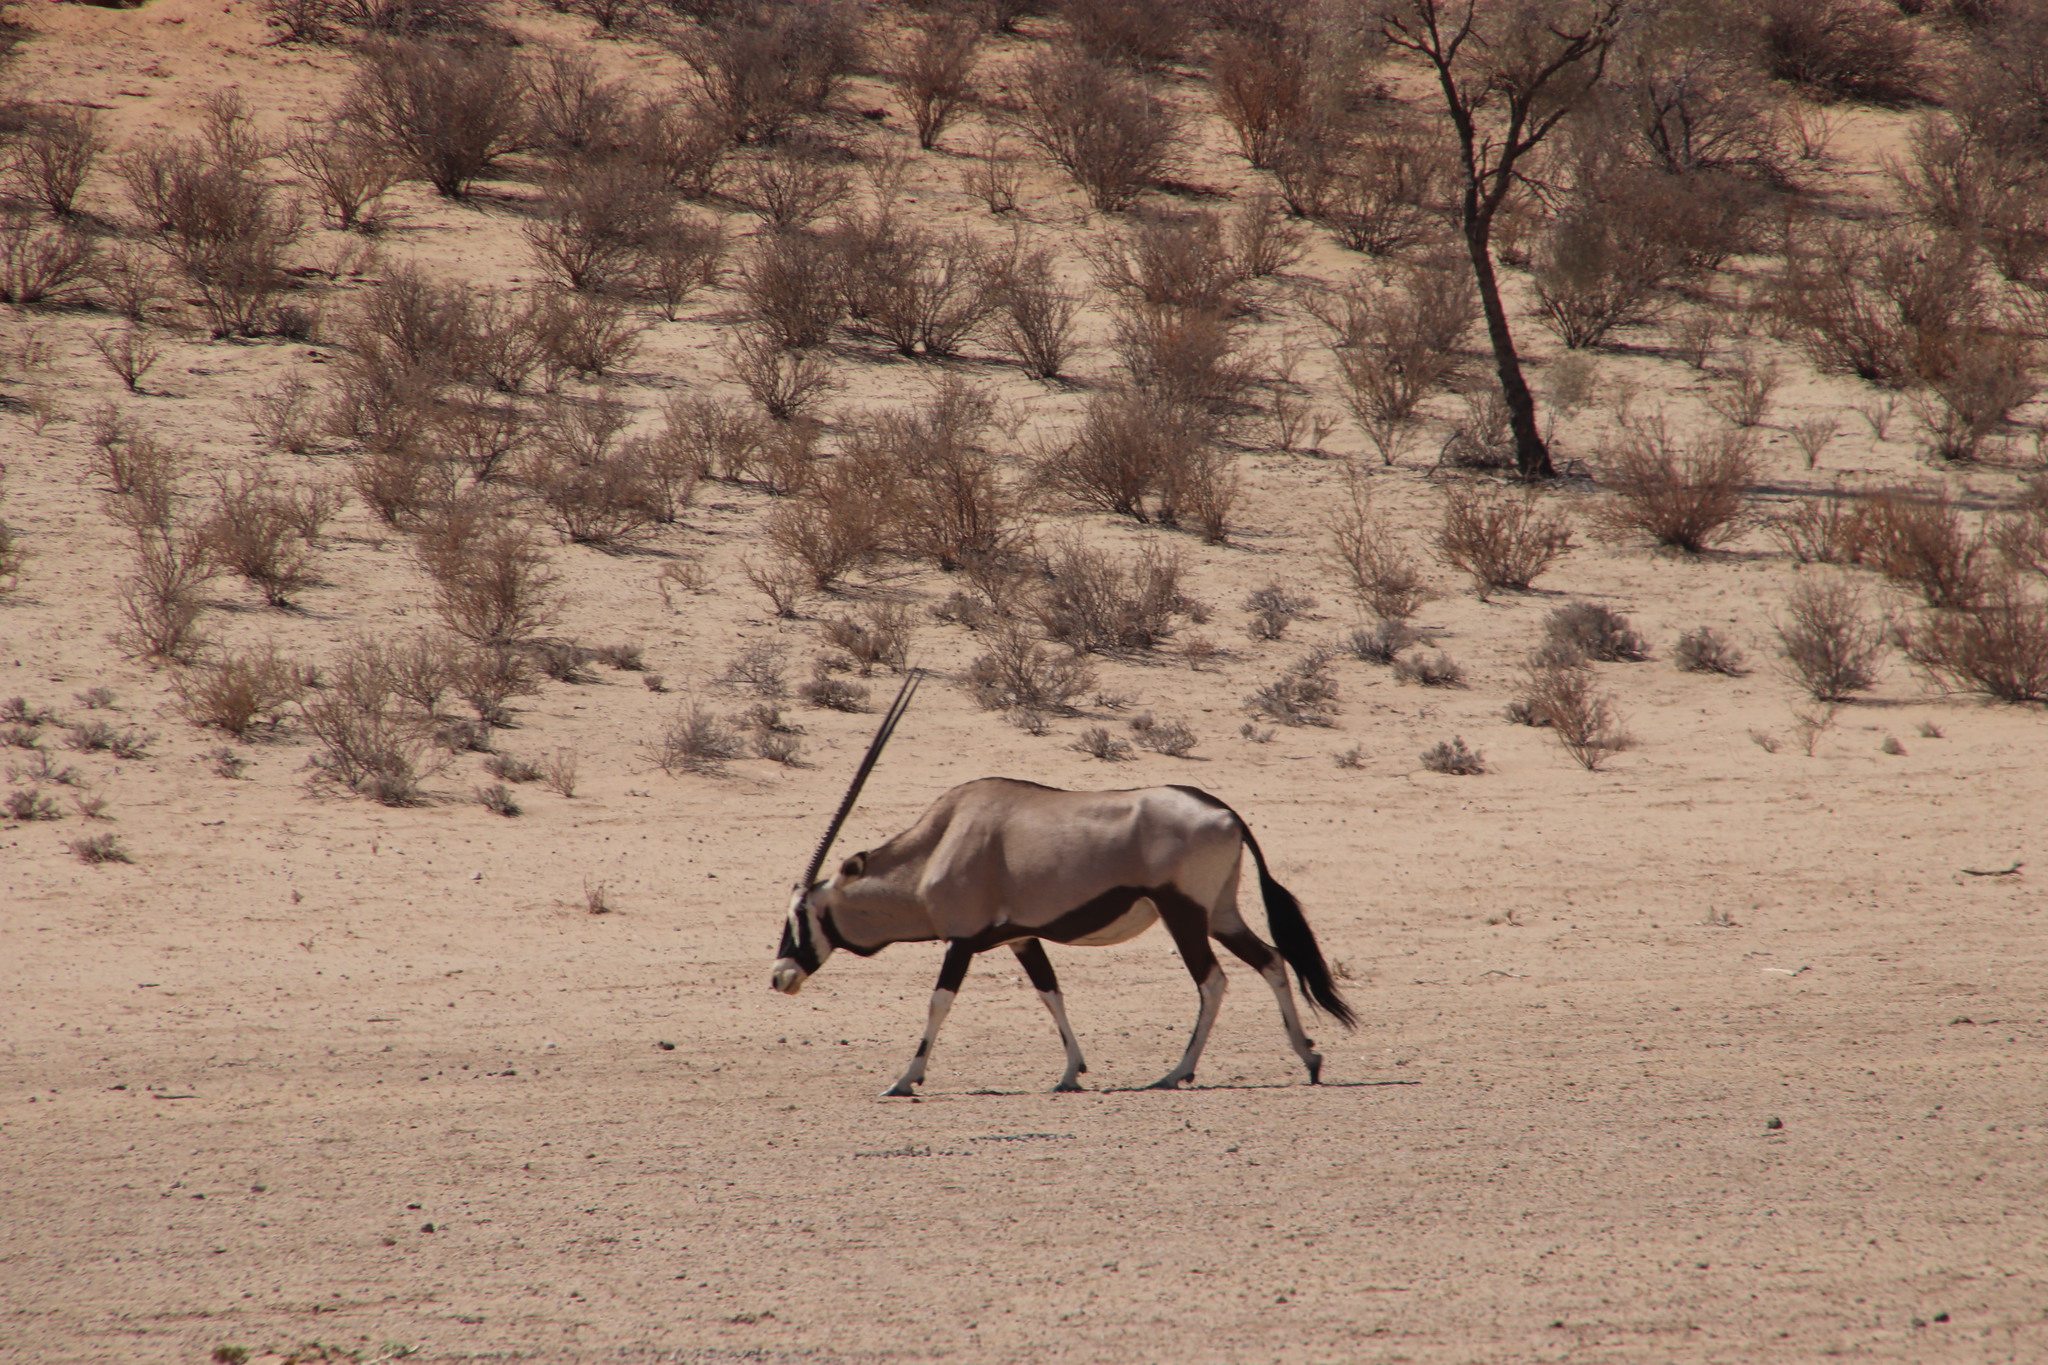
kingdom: Animalia
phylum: Chordata
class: Mammalia
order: Artiodactyla
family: Bovidae
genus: Oryx
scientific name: Oryx gazella
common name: Gemsbok
